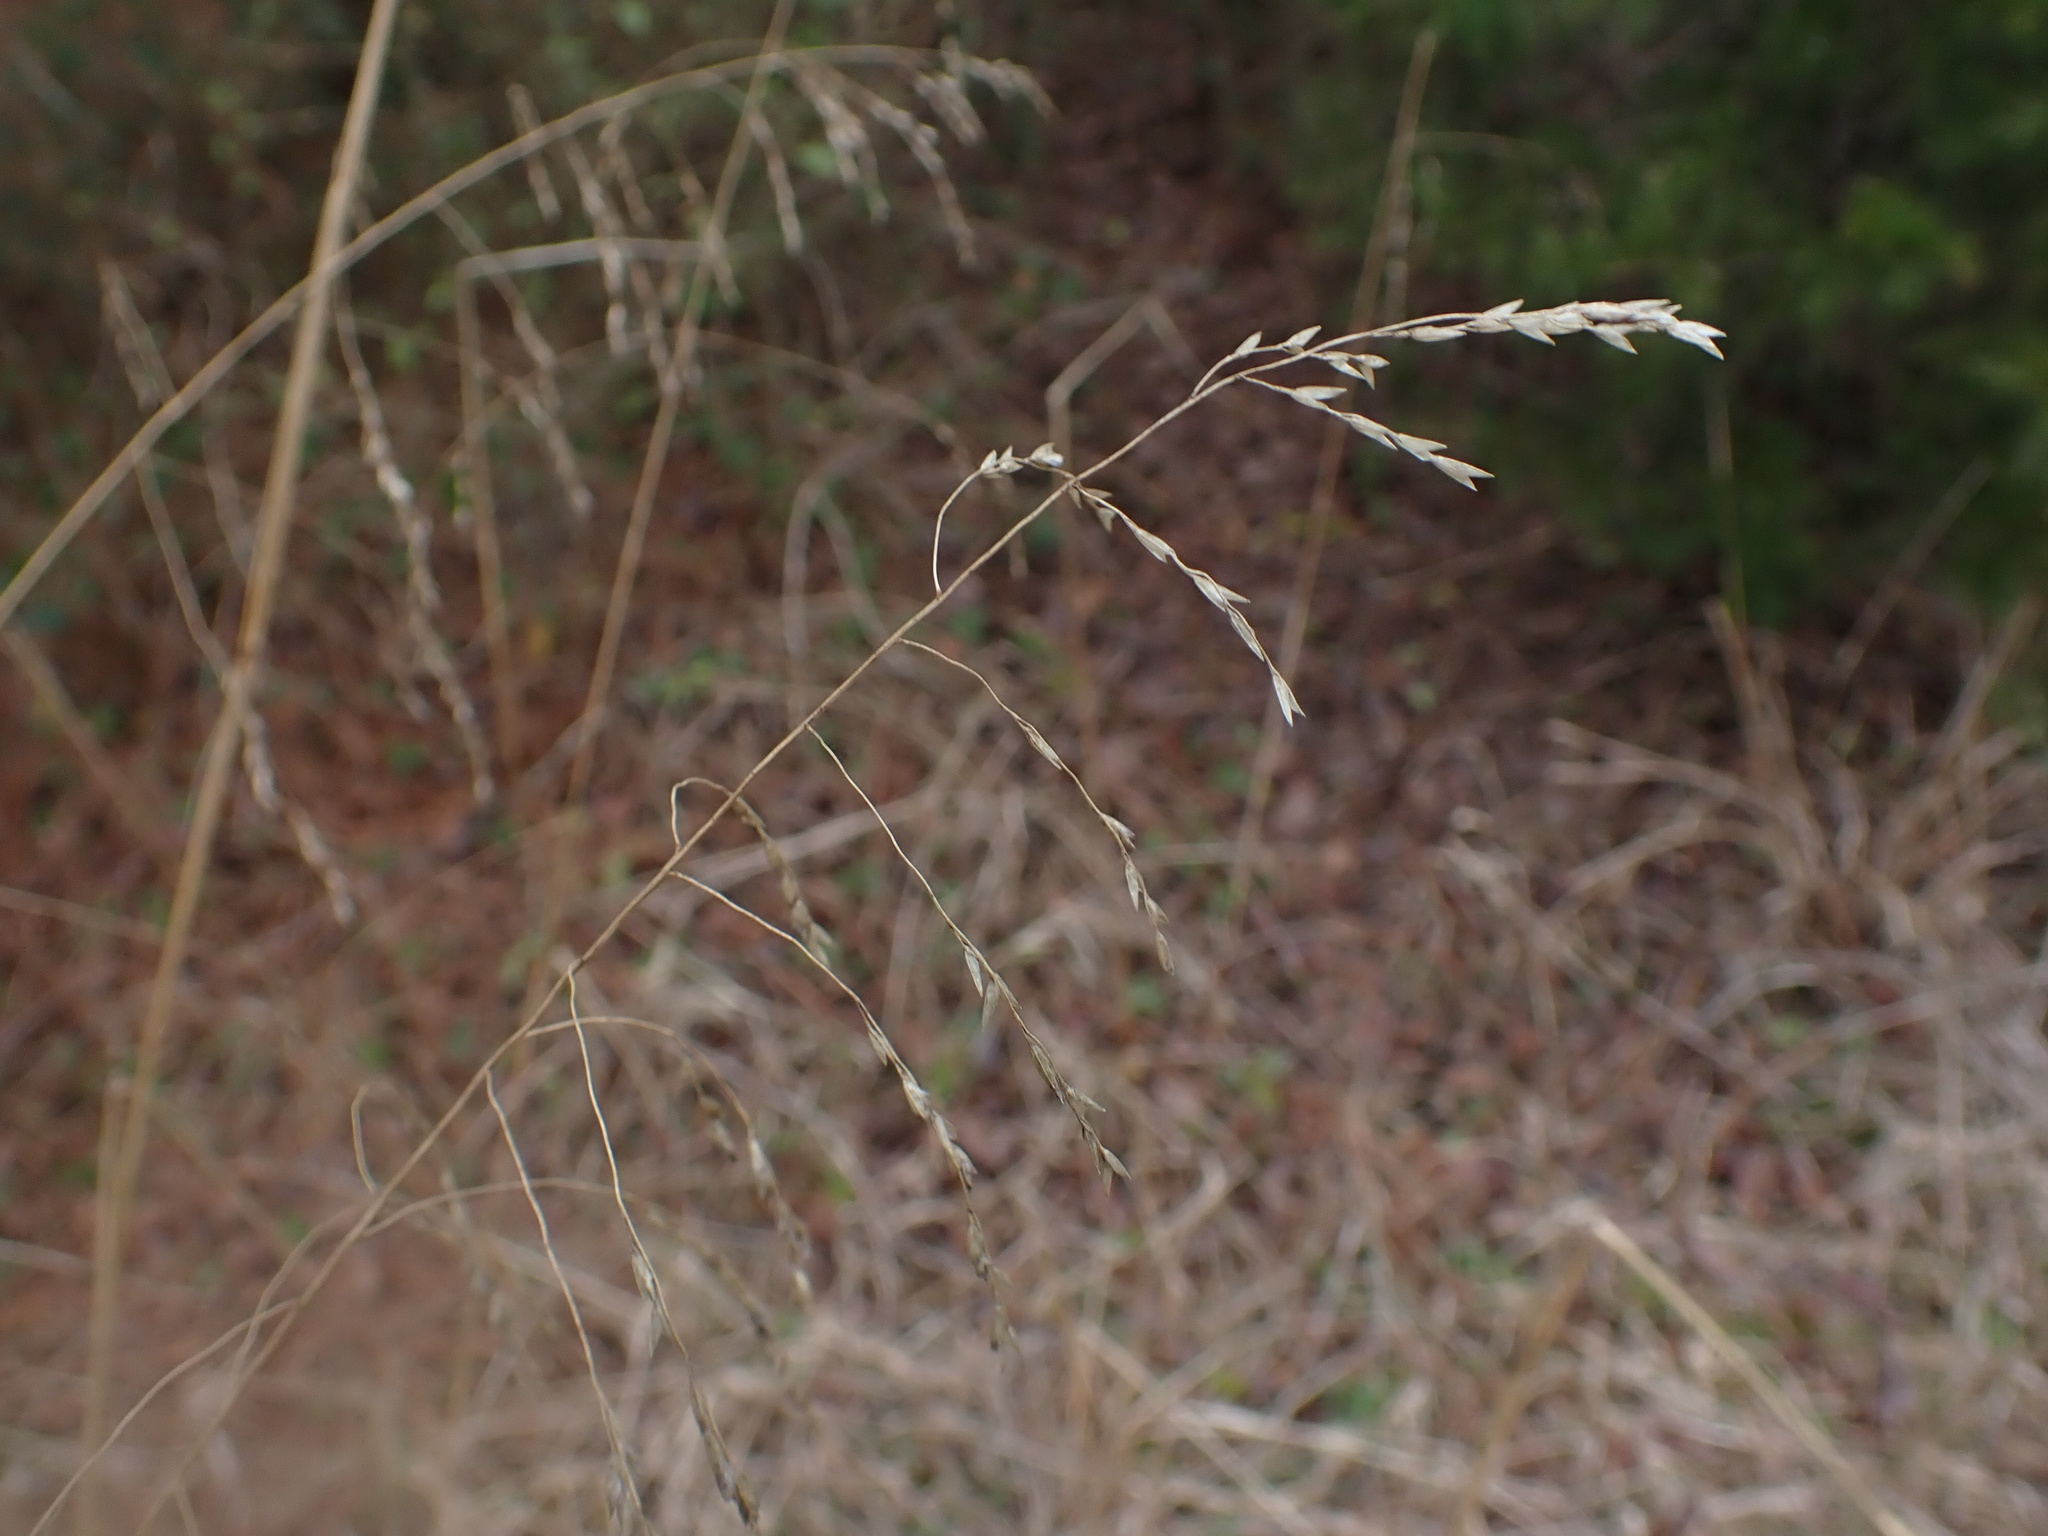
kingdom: Plantae
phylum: Tracheophyta
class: Liliopsida
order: Poales
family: Poaceae
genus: Tridens
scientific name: Tridens flavus
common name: Purpletop
